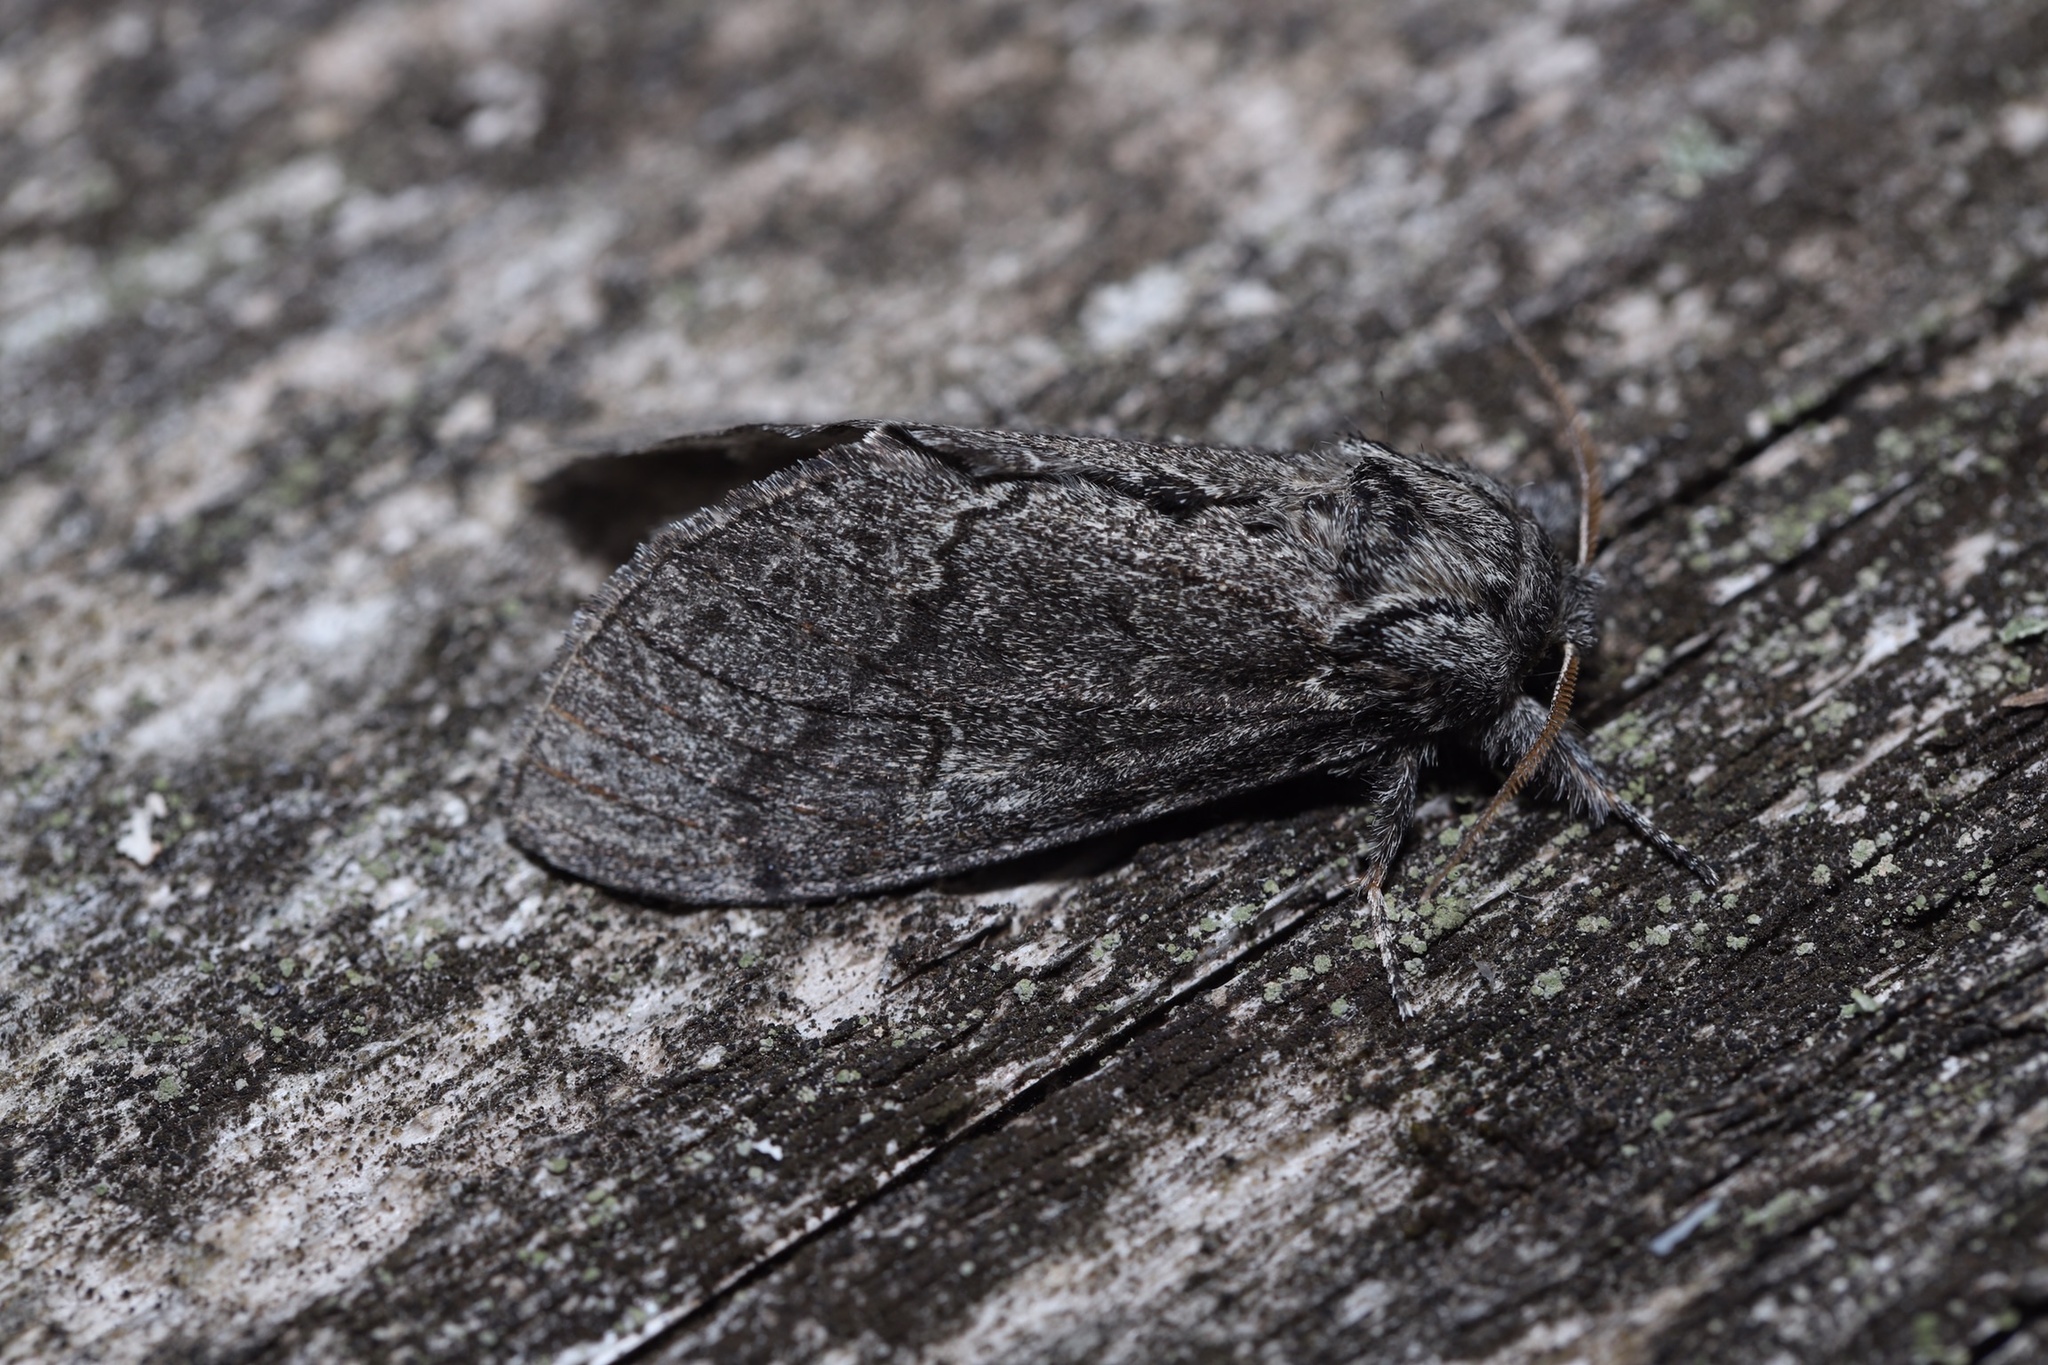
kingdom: Animalia
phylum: Arthropoda
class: Insecta
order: Lepidoptera
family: Notodontidae
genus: Notodonta
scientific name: Notodonta torva
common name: Large dark prominent
